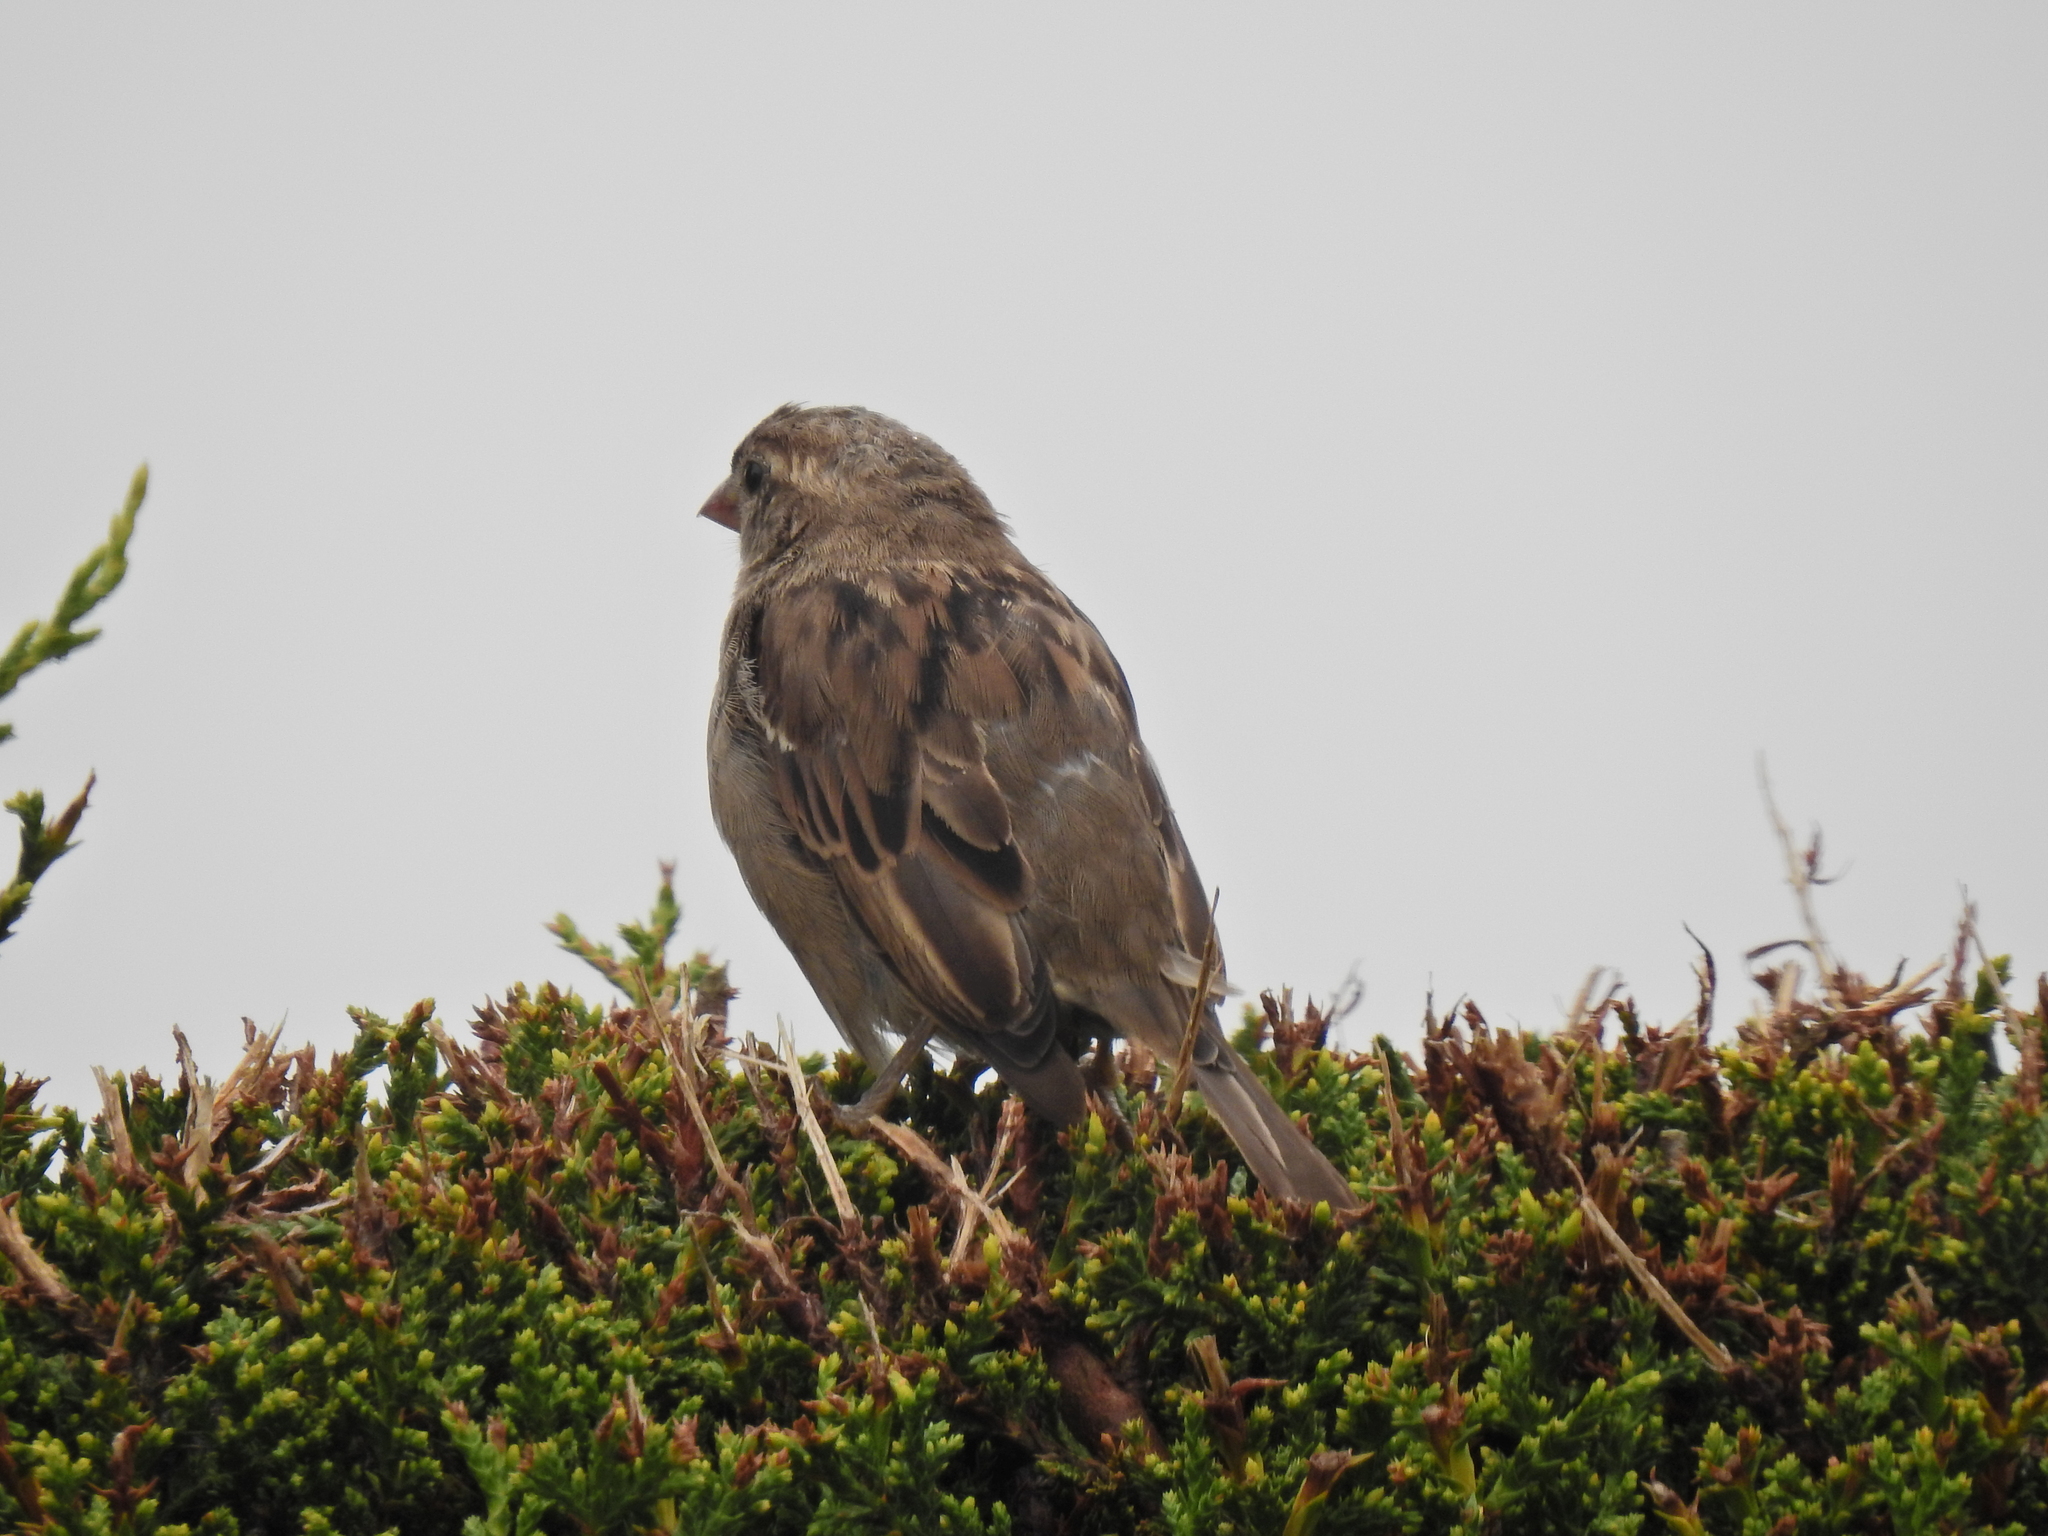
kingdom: Animalia
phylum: Chordata
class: Aves
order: Passeriformes
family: Passeridae
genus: Passer
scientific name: Passer domesticus
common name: House sparrow
